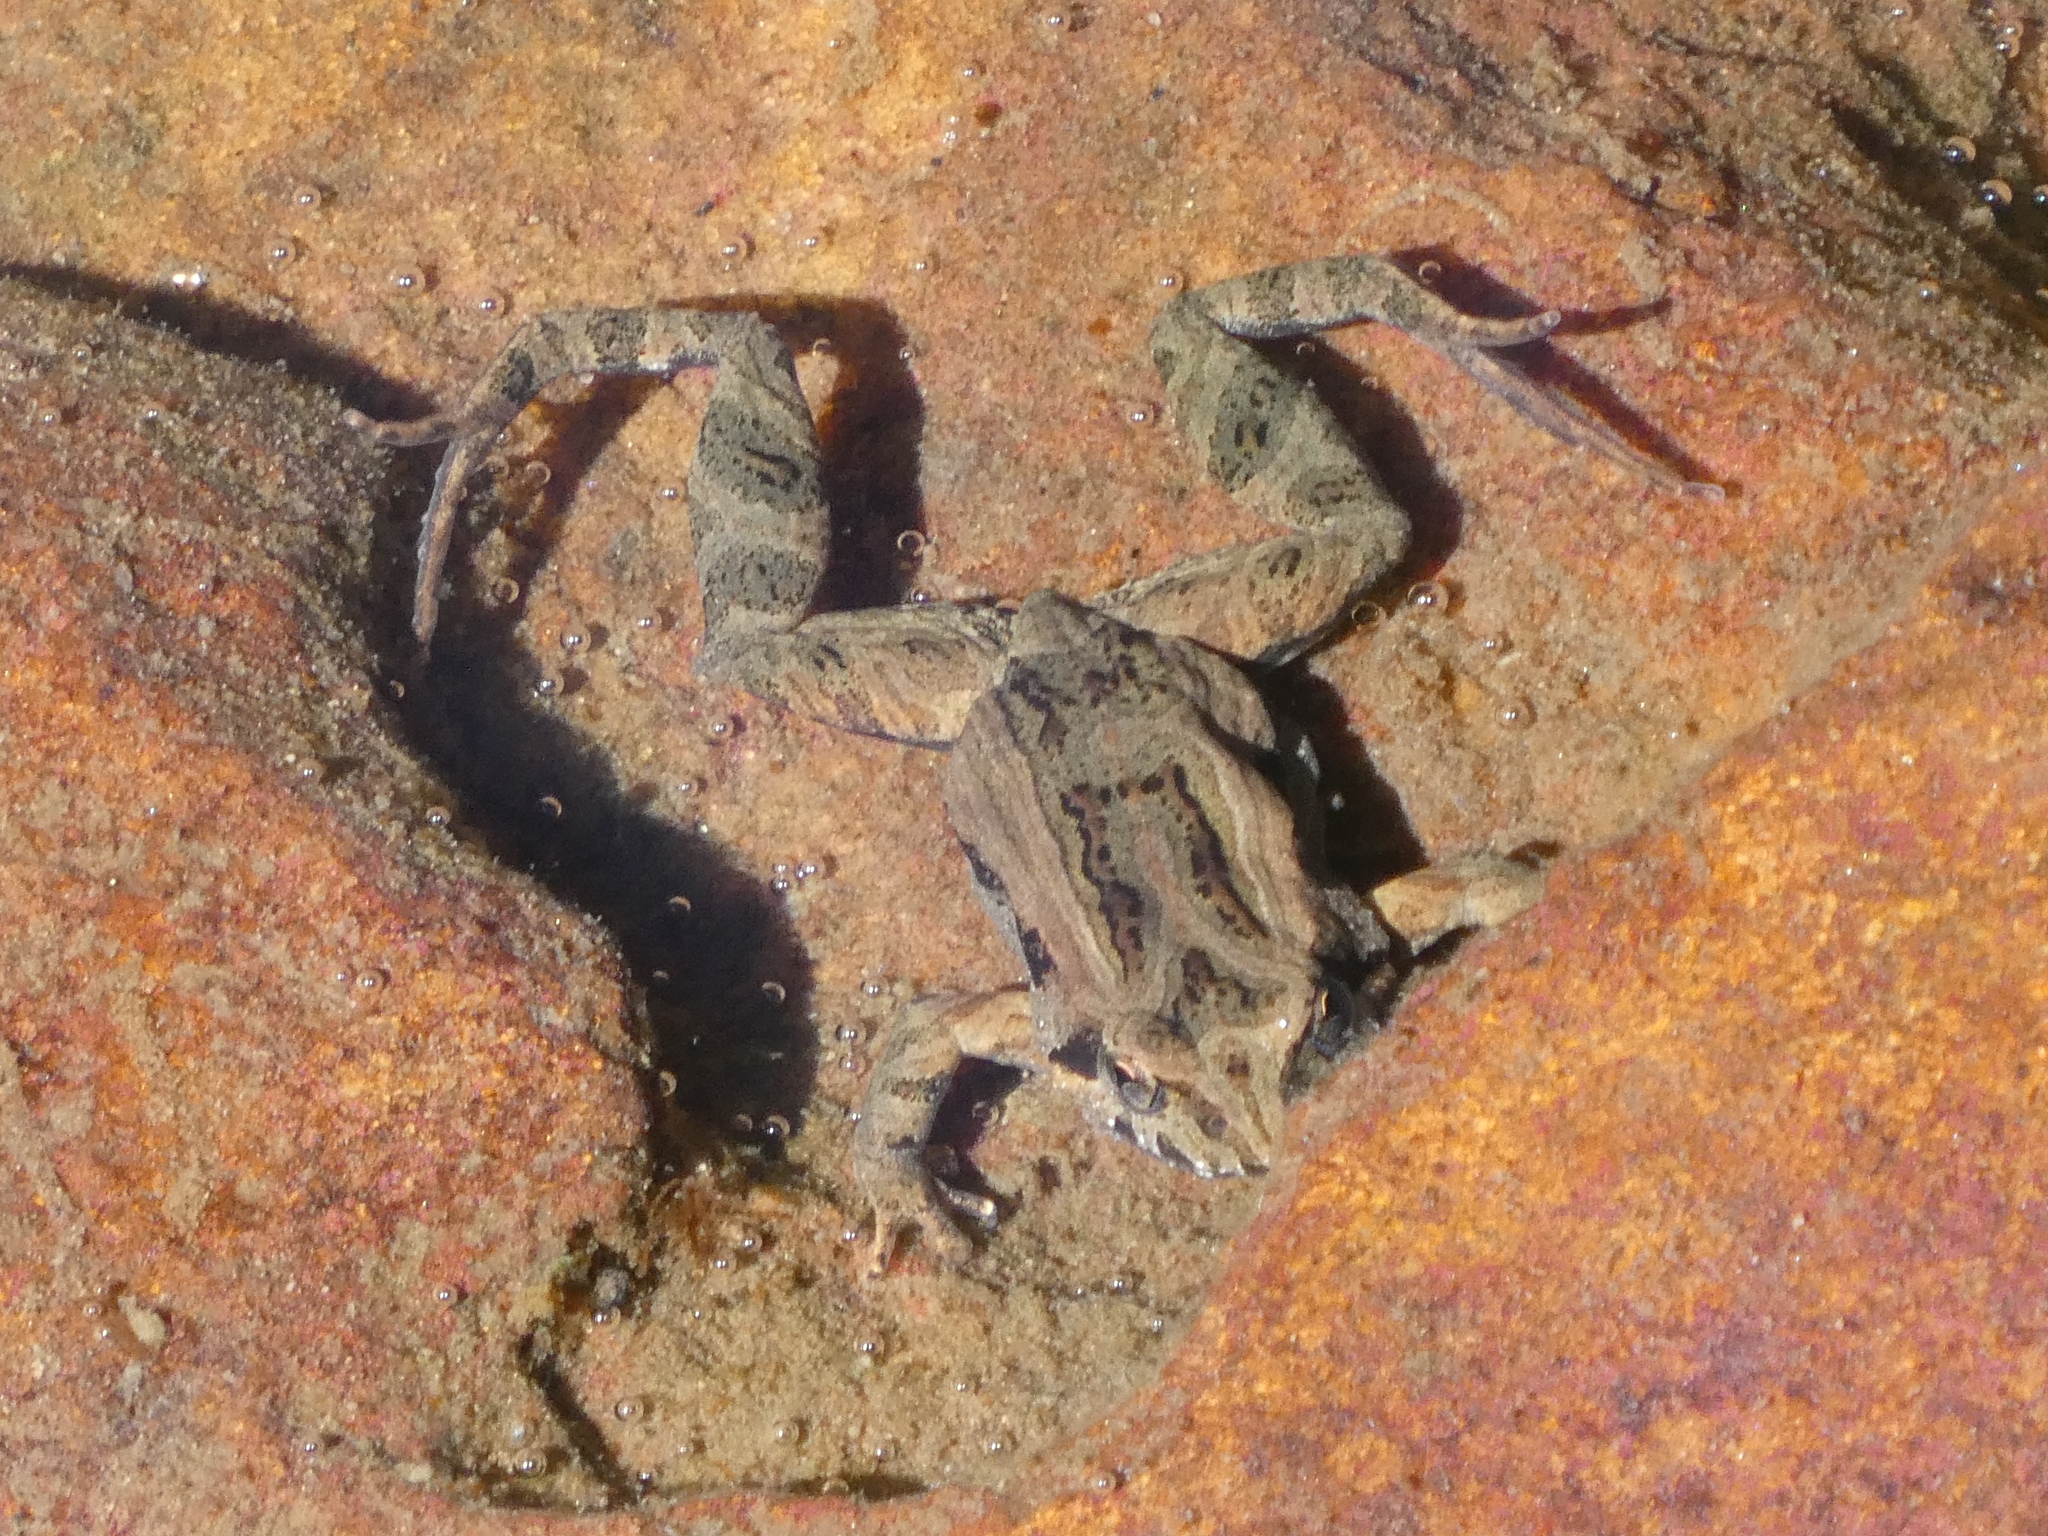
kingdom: Animalia
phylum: Chordata
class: Amphibia
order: Anura
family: Myobatrachidae
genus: Crinia
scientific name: Crinia signifera
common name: Brown froglet
